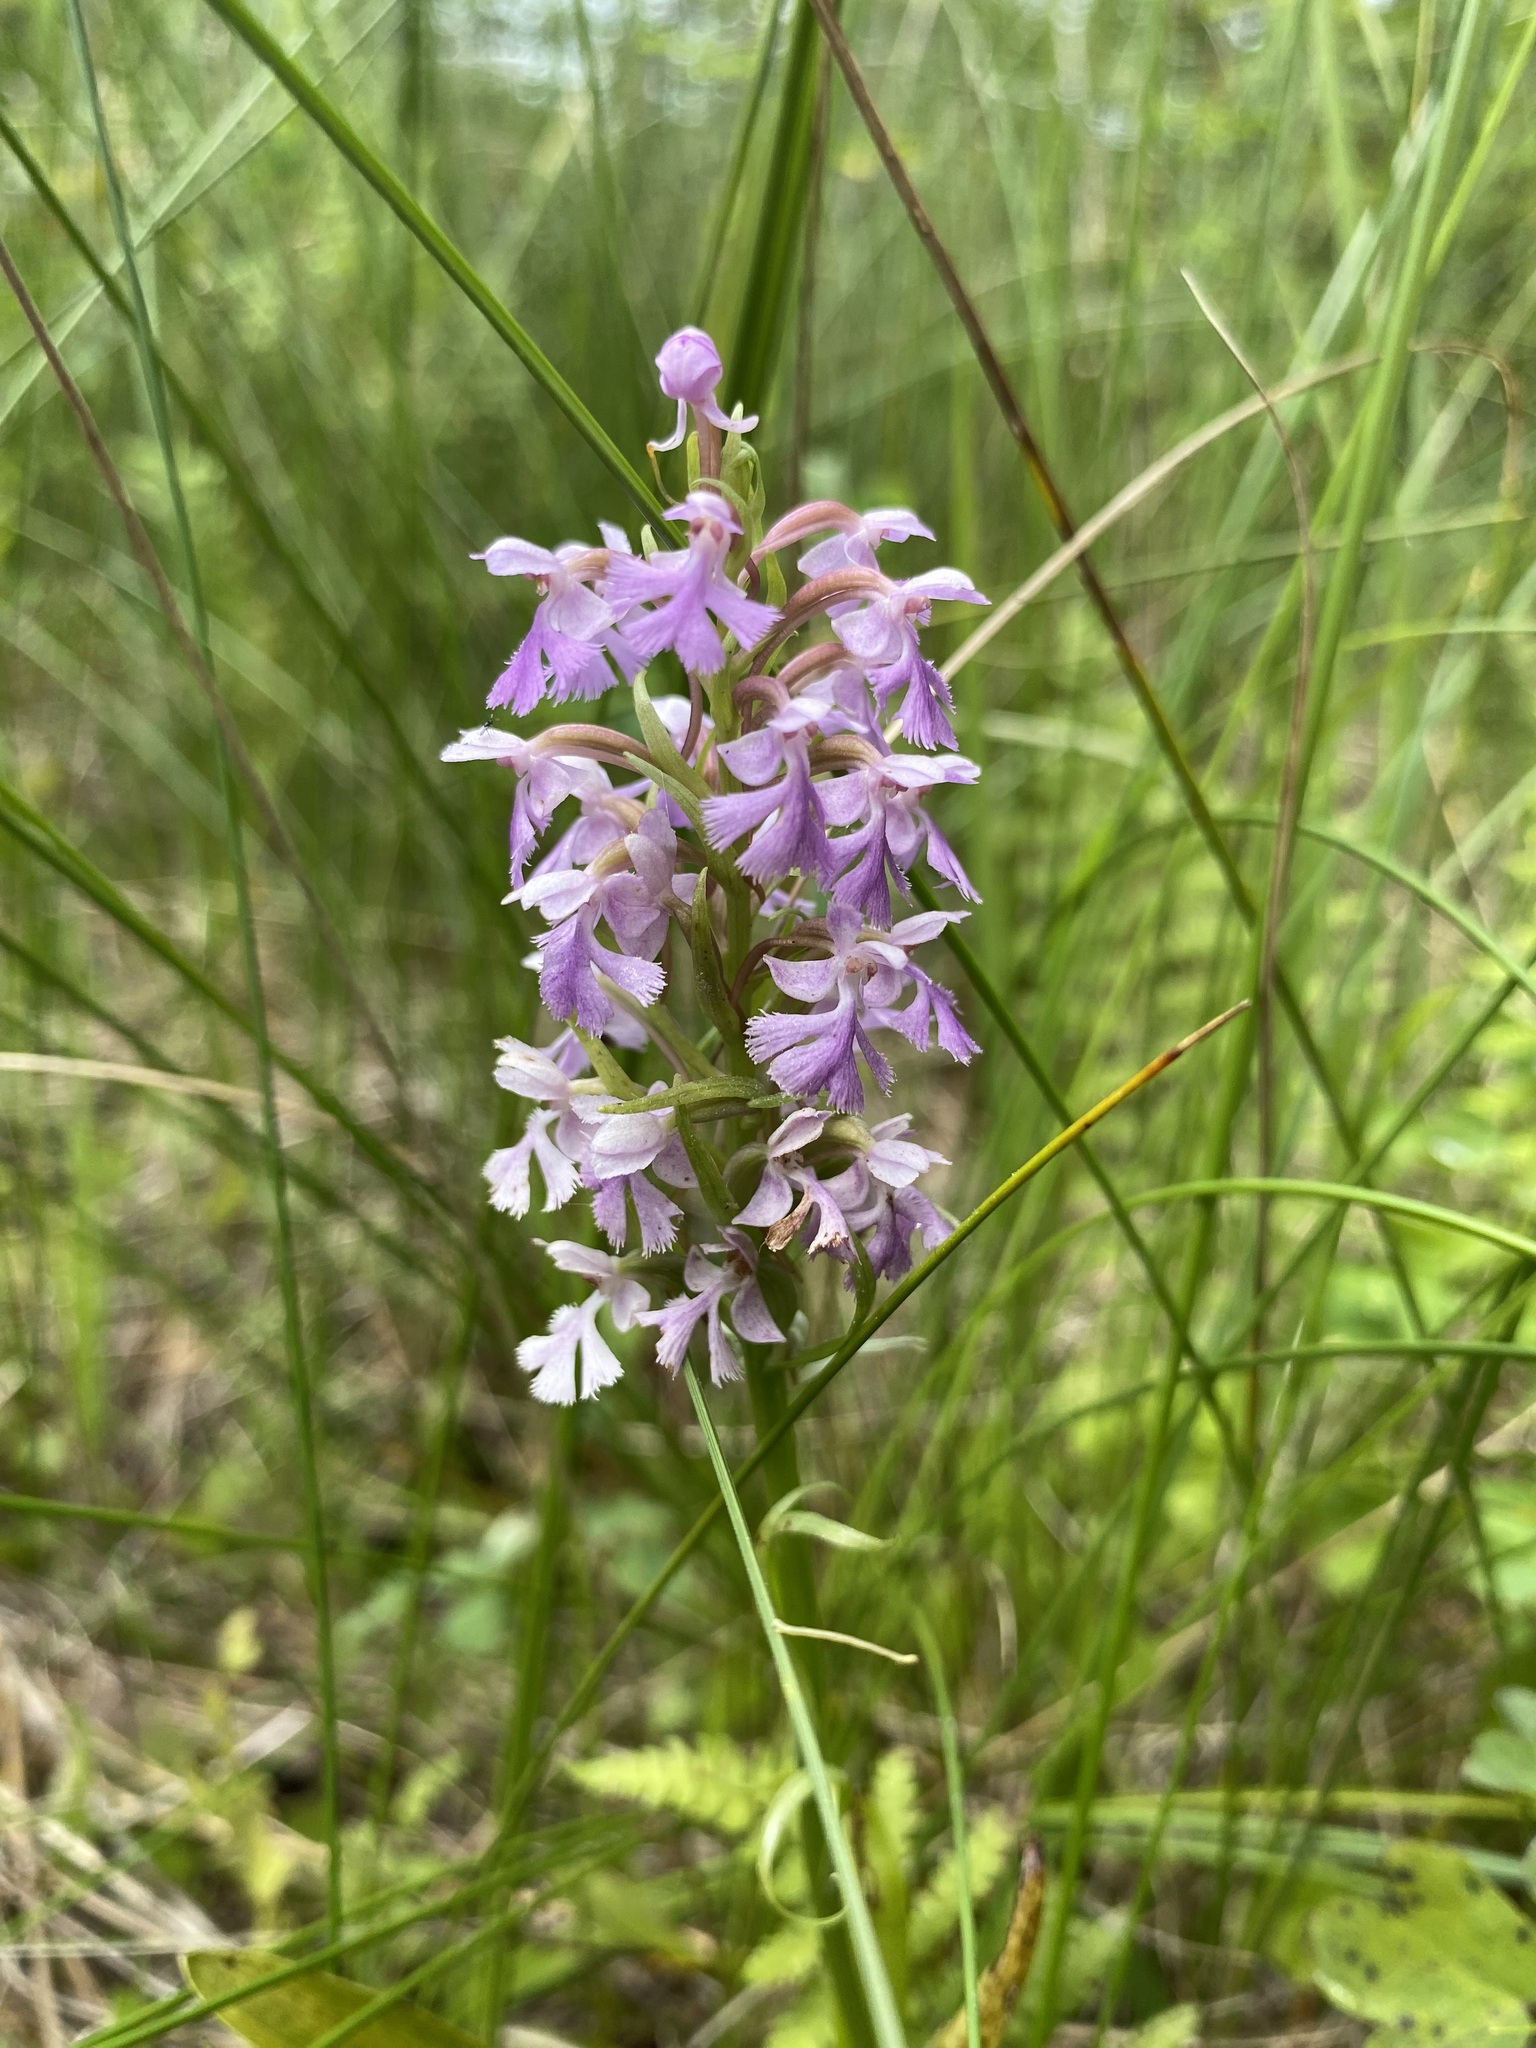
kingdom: Plantae
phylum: Tracheophyta
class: Liliopsida
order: Asparagales
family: Orchidaceae
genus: Platanthera
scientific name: Platanthera psycodes
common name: Lesser purple fringed orchid
